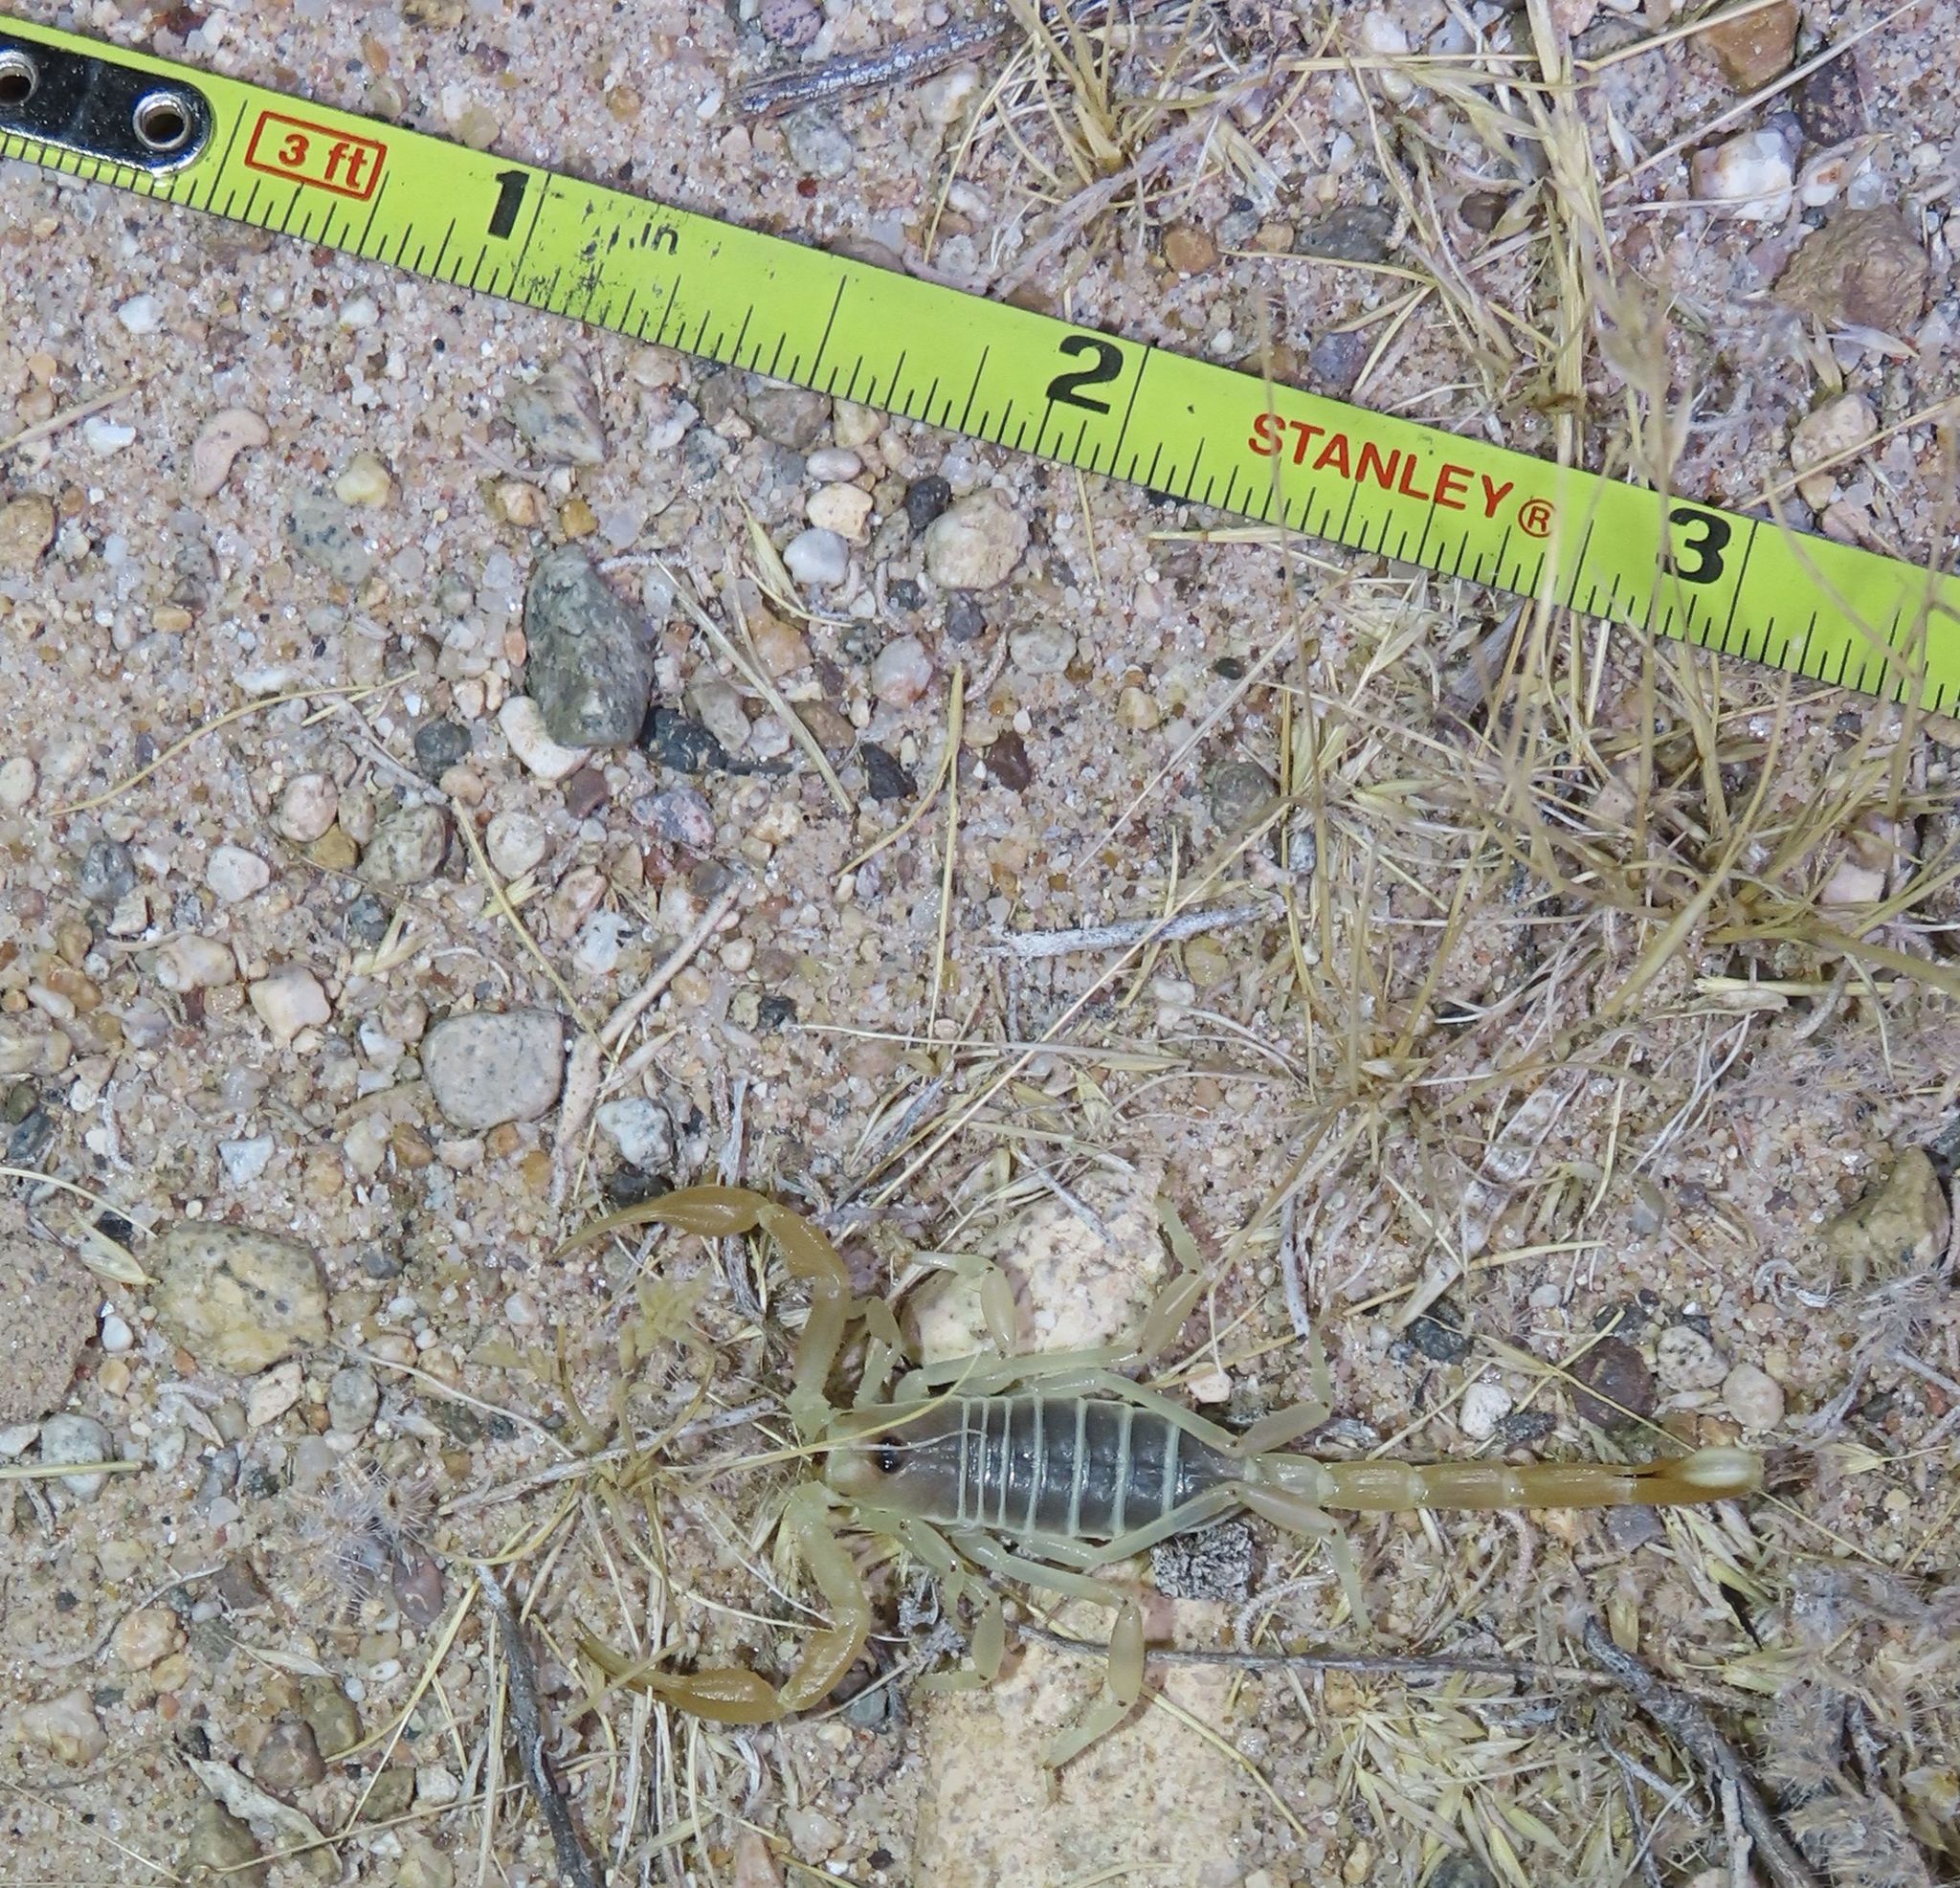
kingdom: Animalia
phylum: Arthropoda
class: Arachnida
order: Scorpiones
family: Vaejovidae
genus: Smeringurus
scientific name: Smeringurus mesaensis
